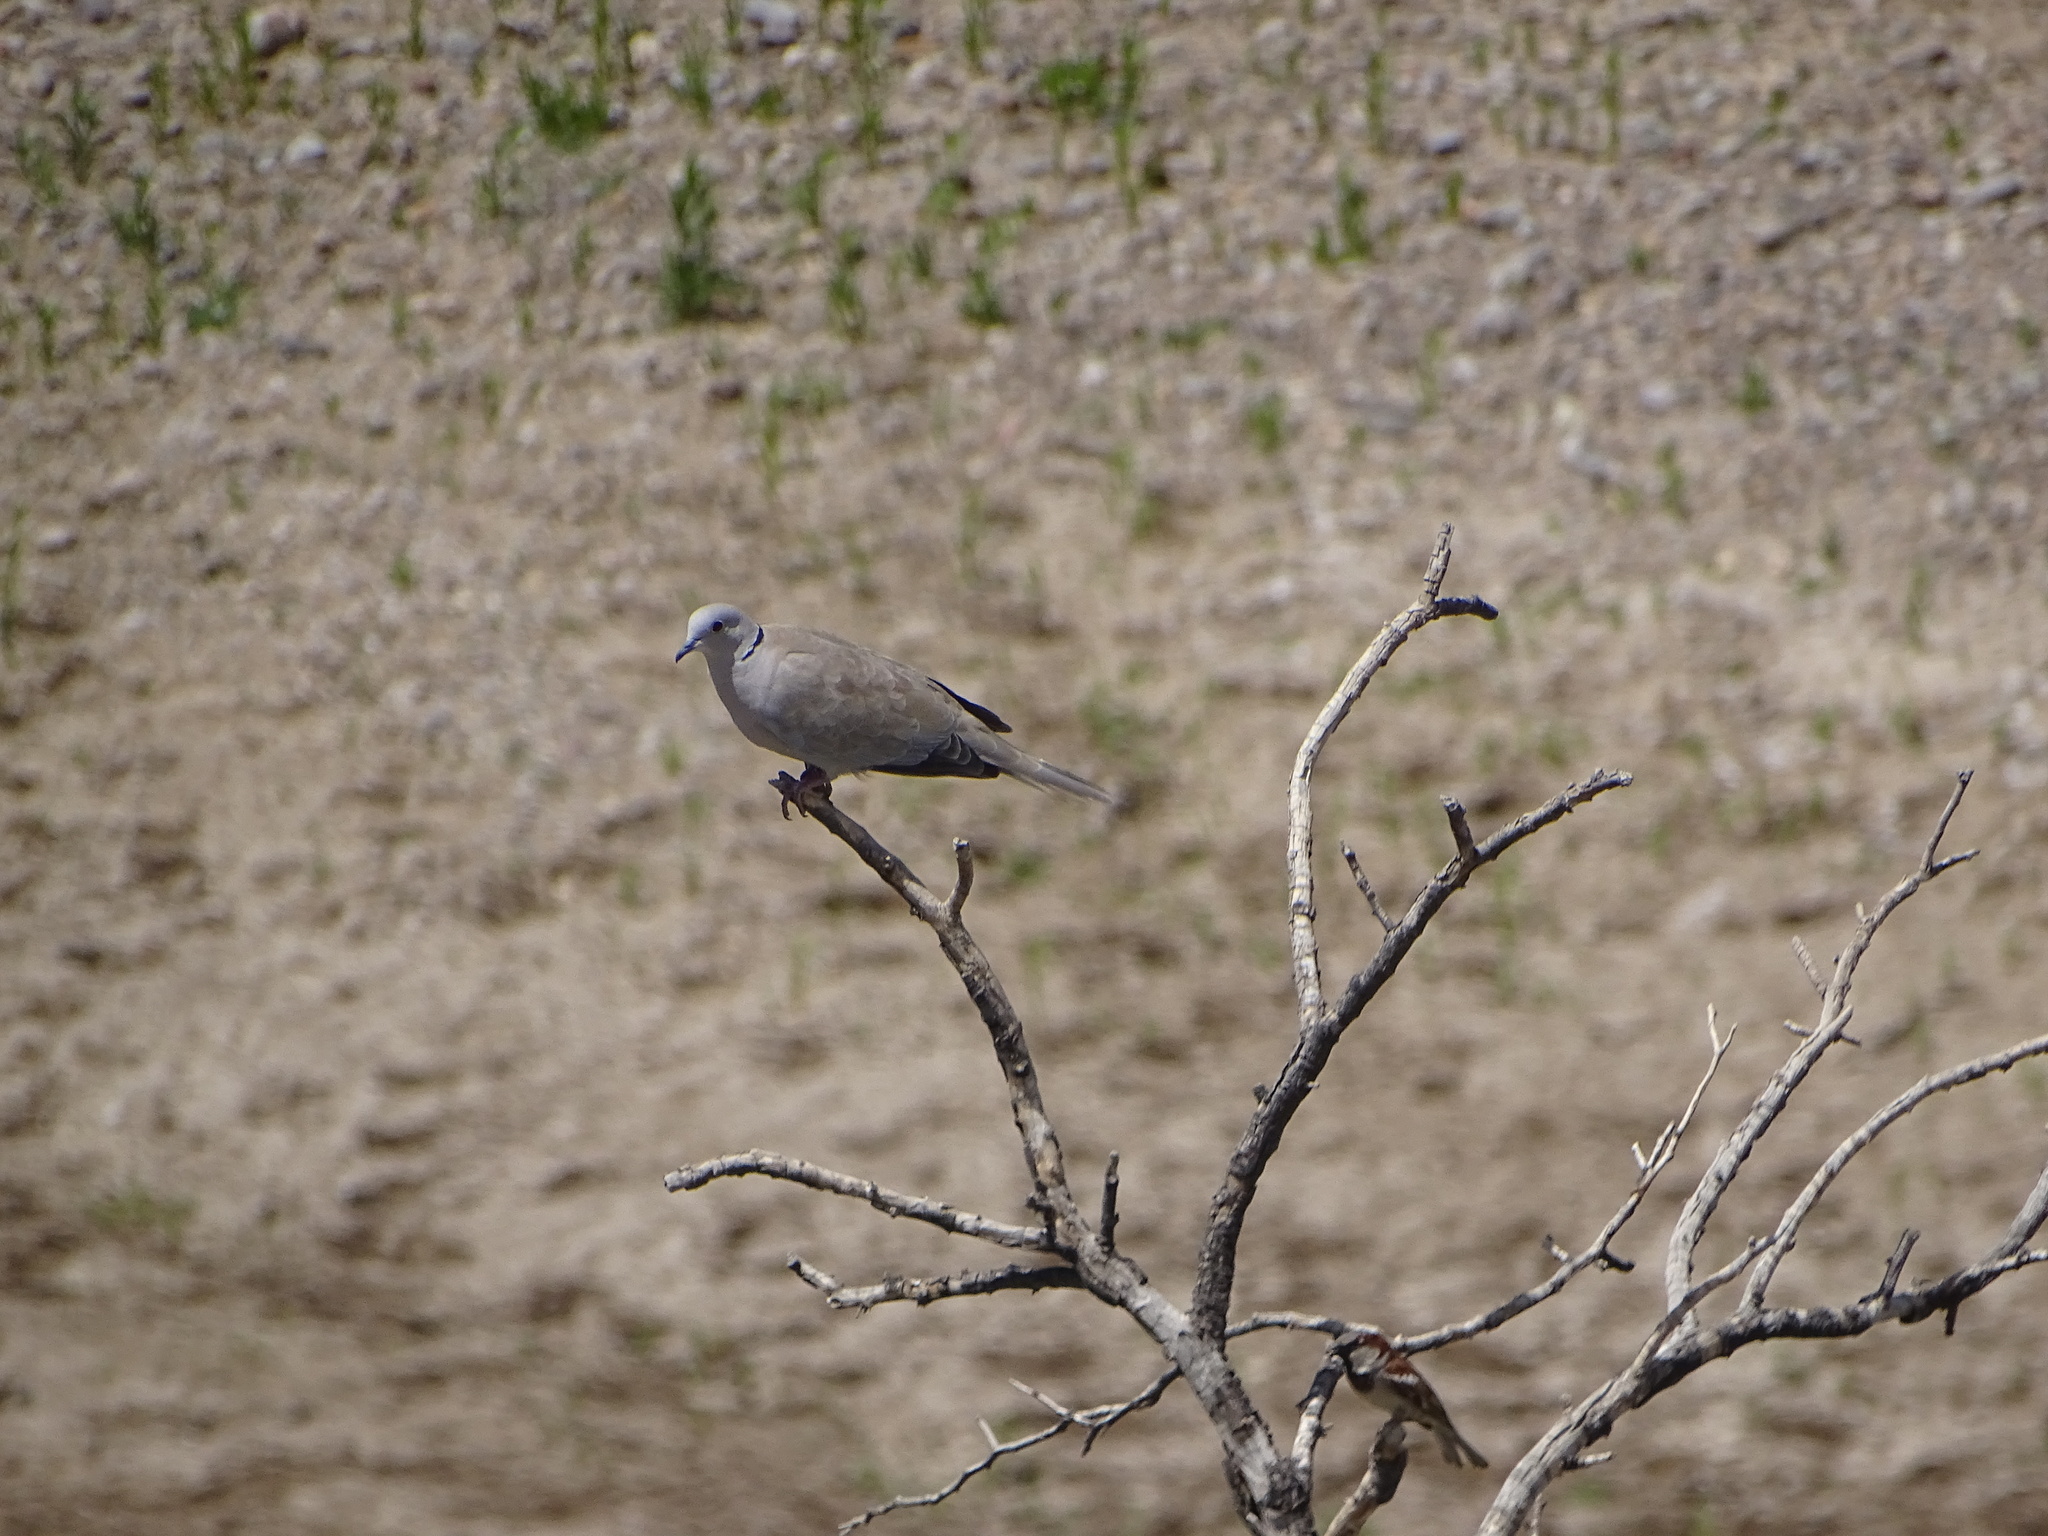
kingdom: Animalia
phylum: Chordata
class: Aves
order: Columbiformes
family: Columbidae
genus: Streptopelia
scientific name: Streptopelia decaocto
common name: Eurasian collared dove
